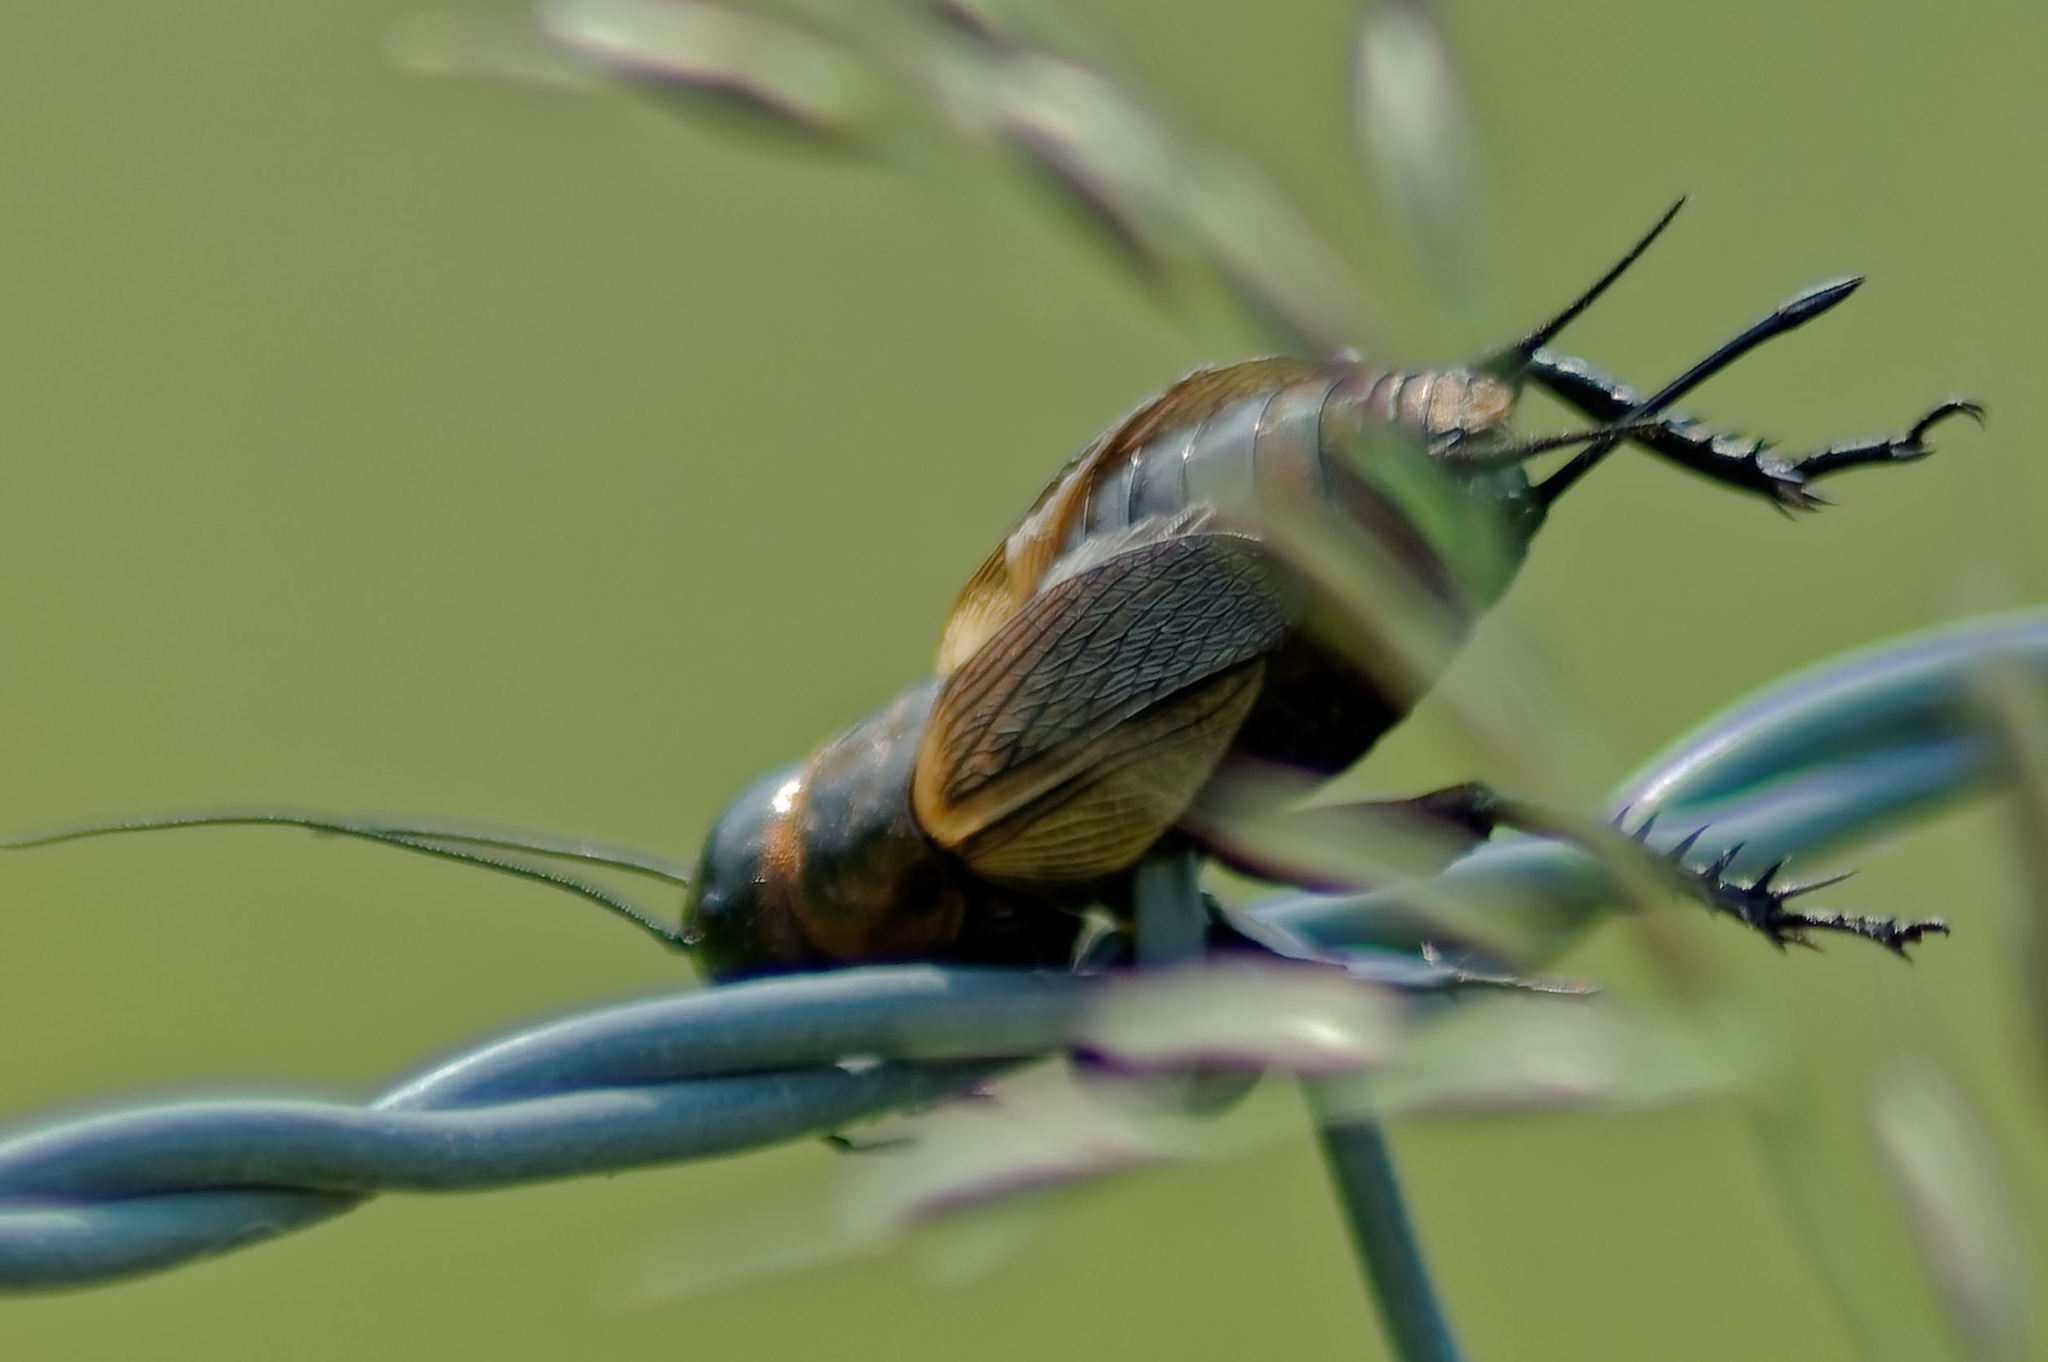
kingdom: Animalia
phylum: Arthropoda
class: Insecta
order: Orthoptera
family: Gryllidae
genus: Gryllus
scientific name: Gryllus campestris
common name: Field cricket
